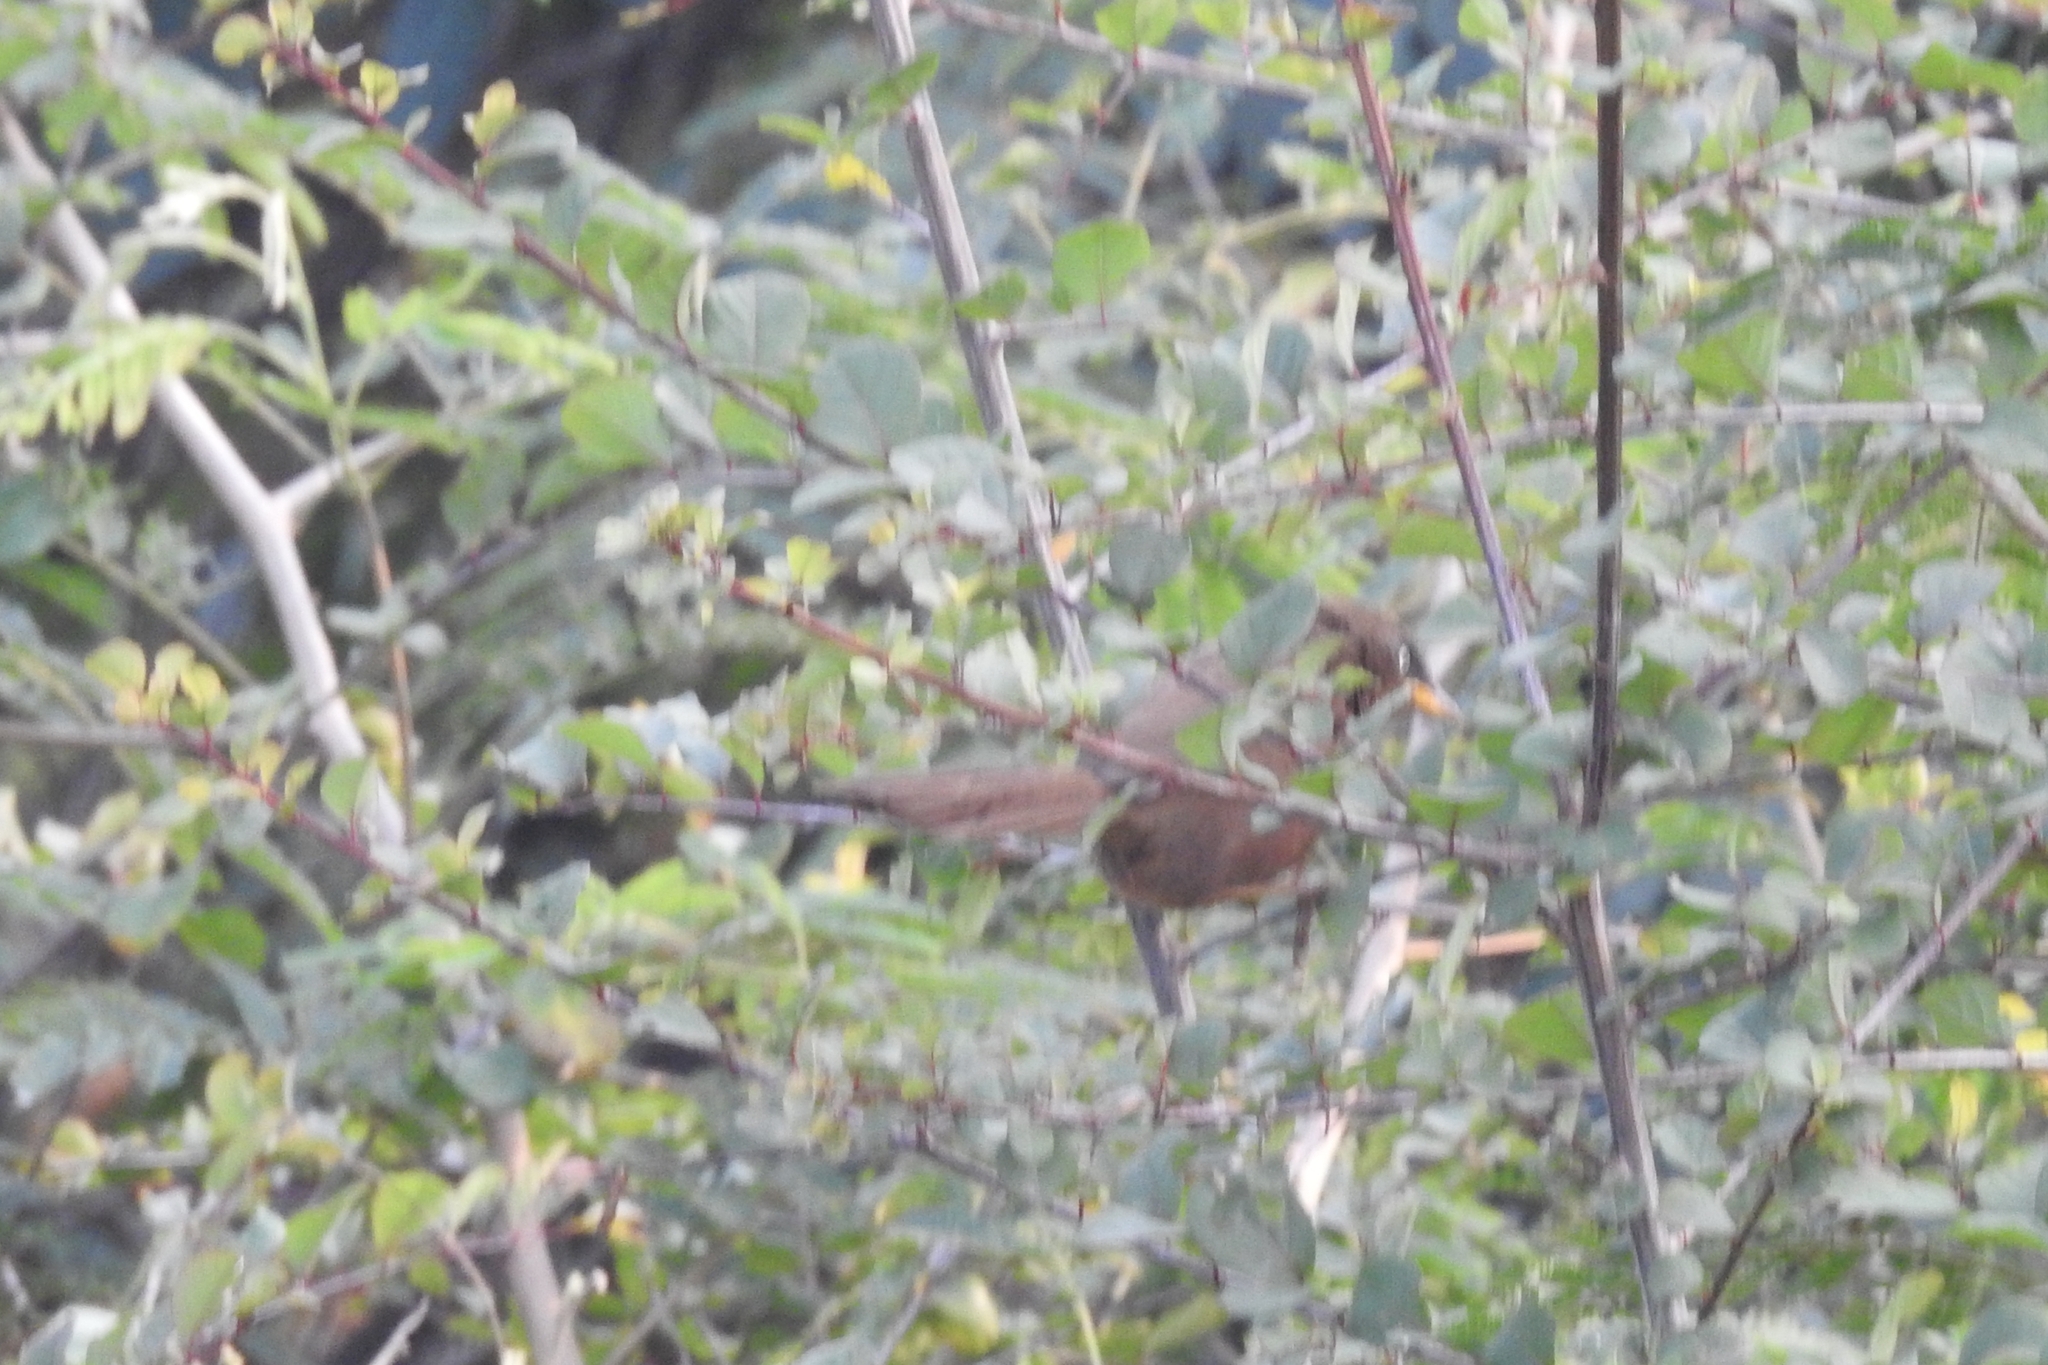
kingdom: Animalia
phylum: Chordata
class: Aves
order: Passeriformes
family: Leiothrichidae
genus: Turdoides
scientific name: Turdoides subrufa
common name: Rufous babbler
